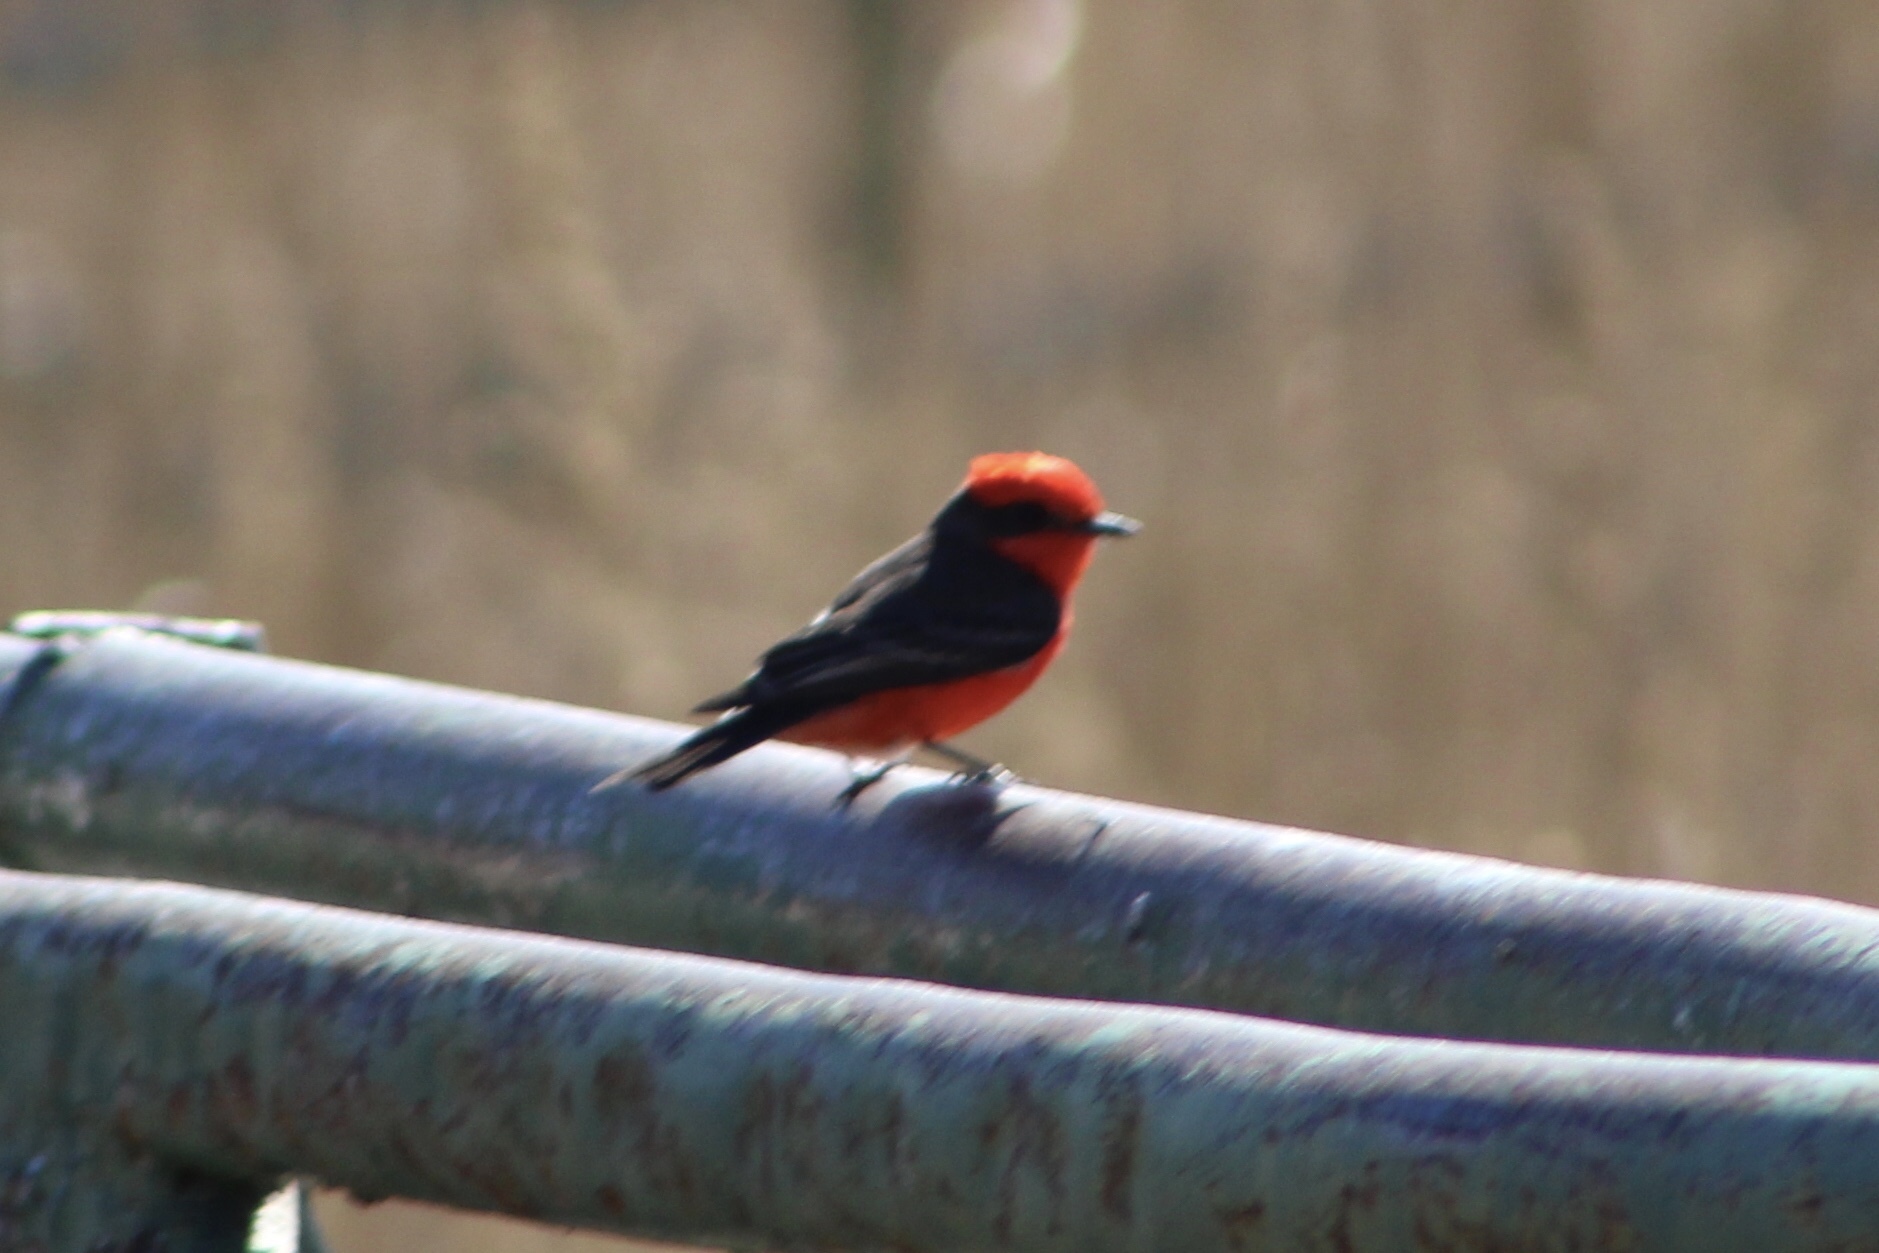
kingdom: Animalia
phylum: Chordata
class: Aves
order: Passeriformes
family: Tyrannidae
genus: Pyrocephalus
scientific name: Pyrocephalus rubinus
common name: Vermilion flycatcher
